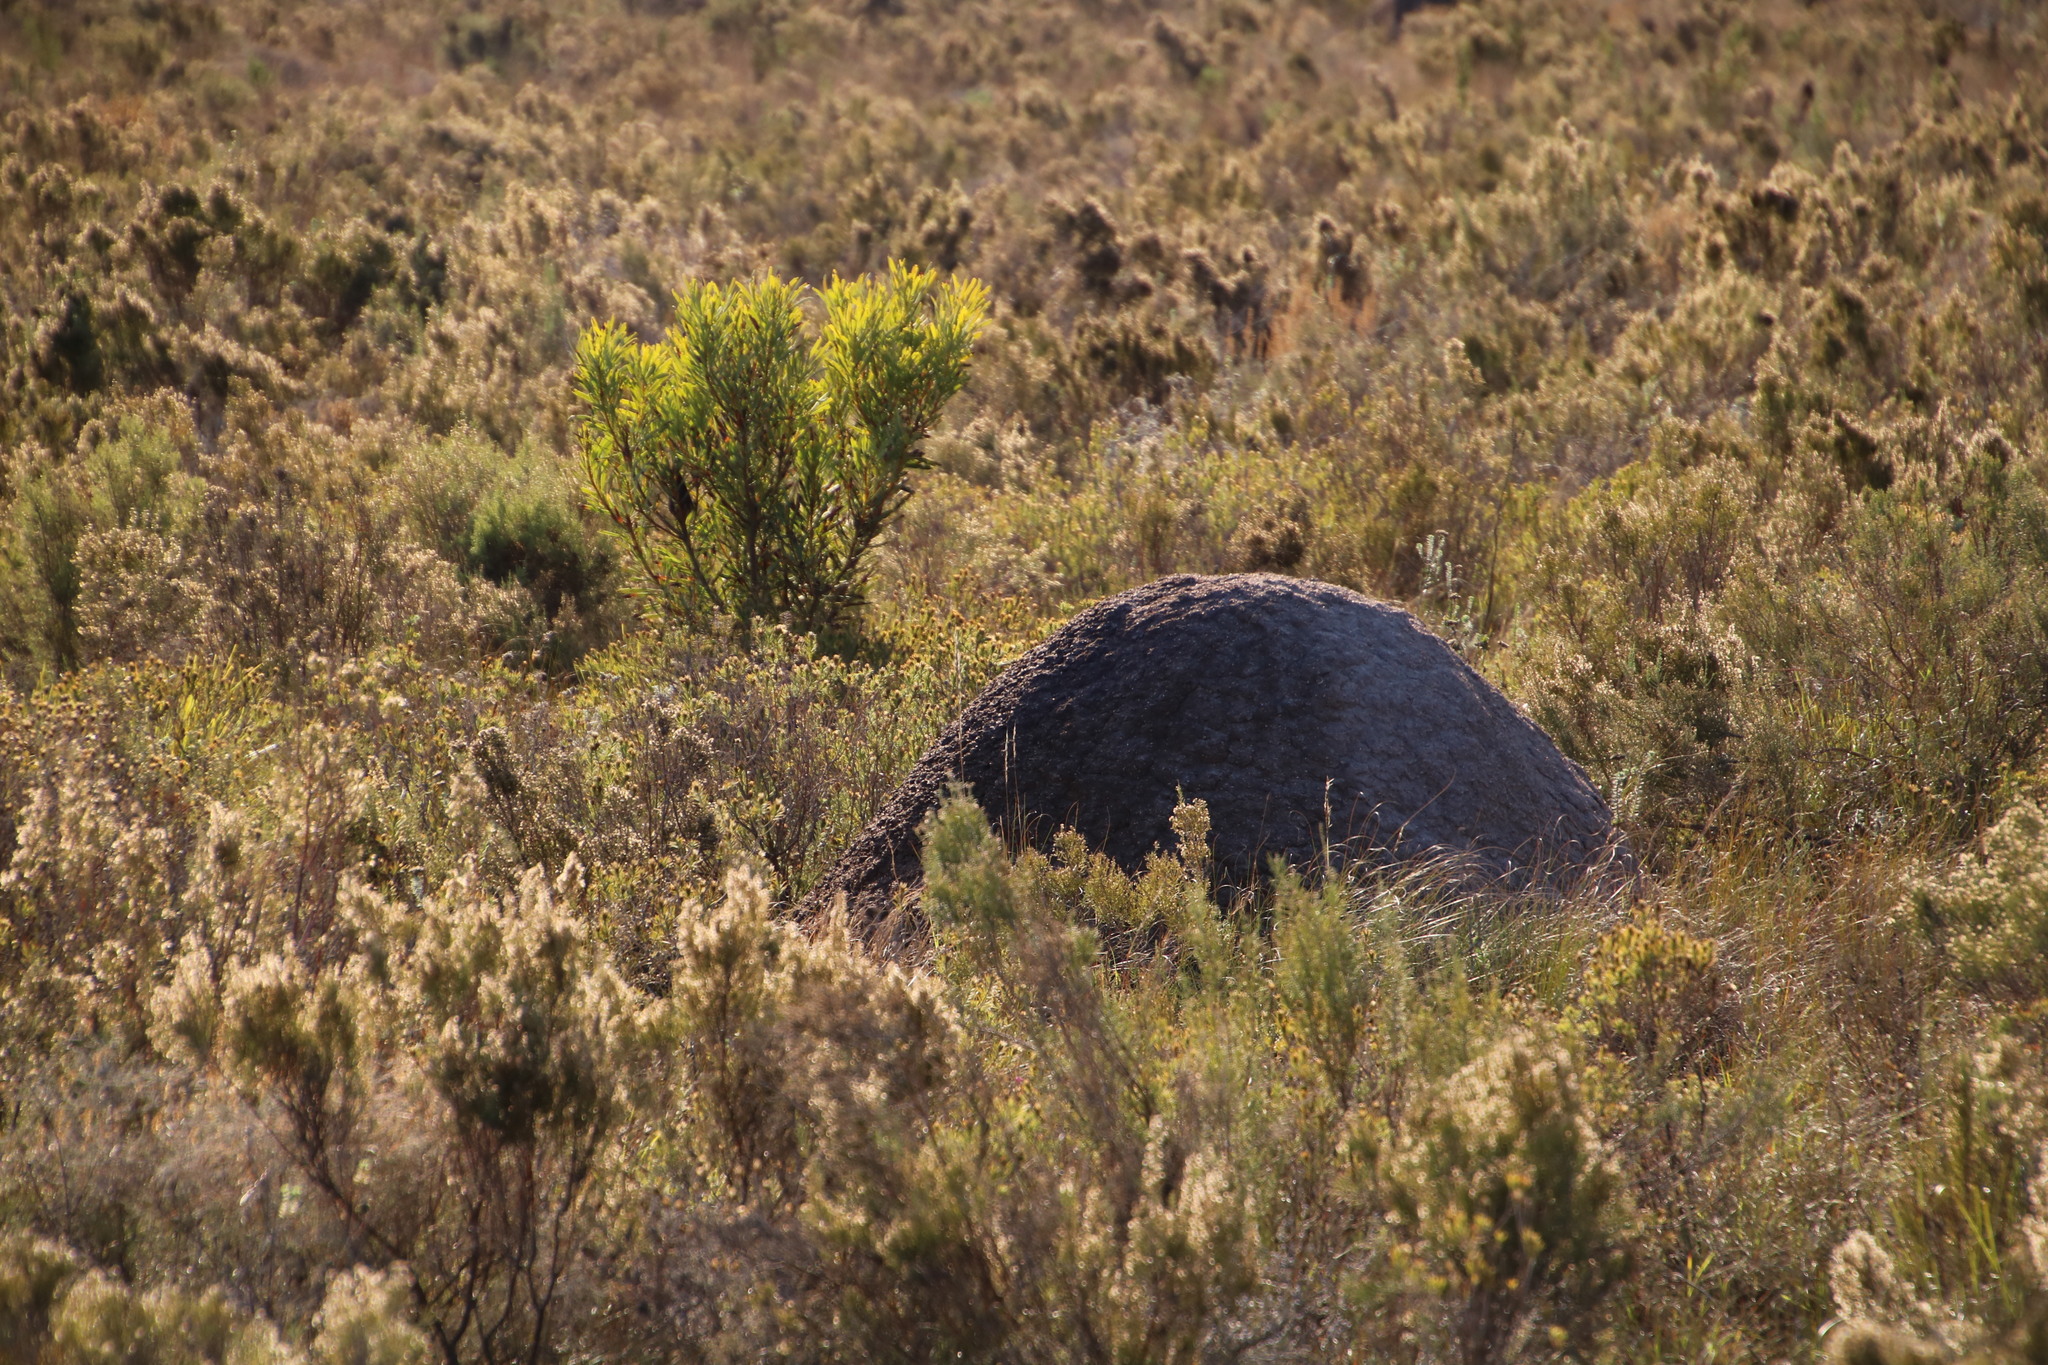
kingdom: Animalia
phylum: Arthropoda
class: Insecta
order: Blattodea
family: Termitidae
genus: Amitermes
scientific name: Amitermes hastatus
